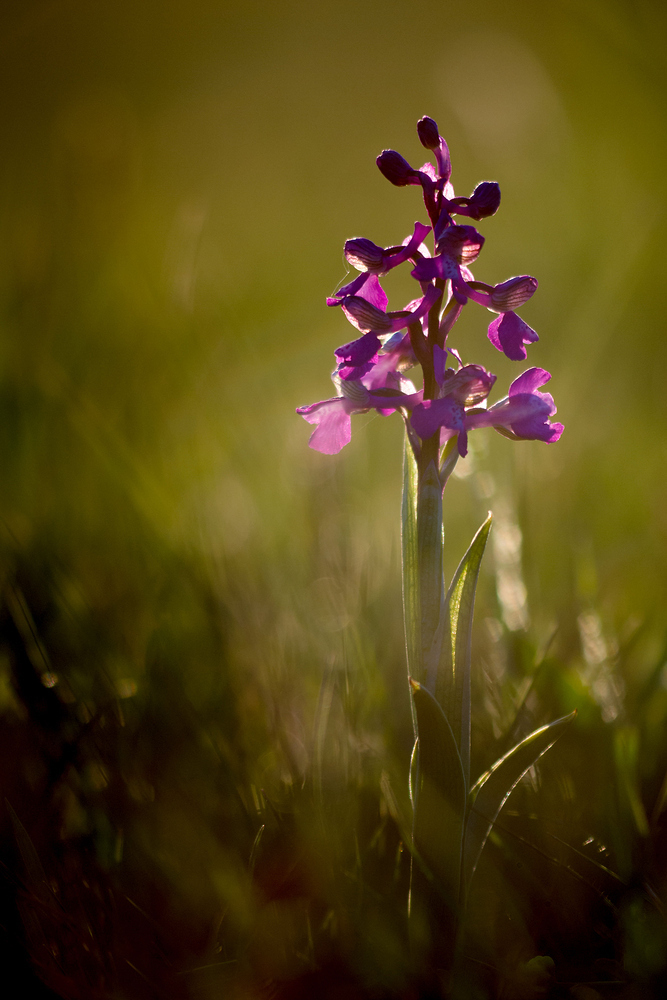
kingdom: Plantae
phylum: Tracheophyta
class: Liliopsida
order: Asparagales
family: Orchidaceae
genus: Anacamptis
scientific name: Anacamptis morio
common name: Green-winged orchid
